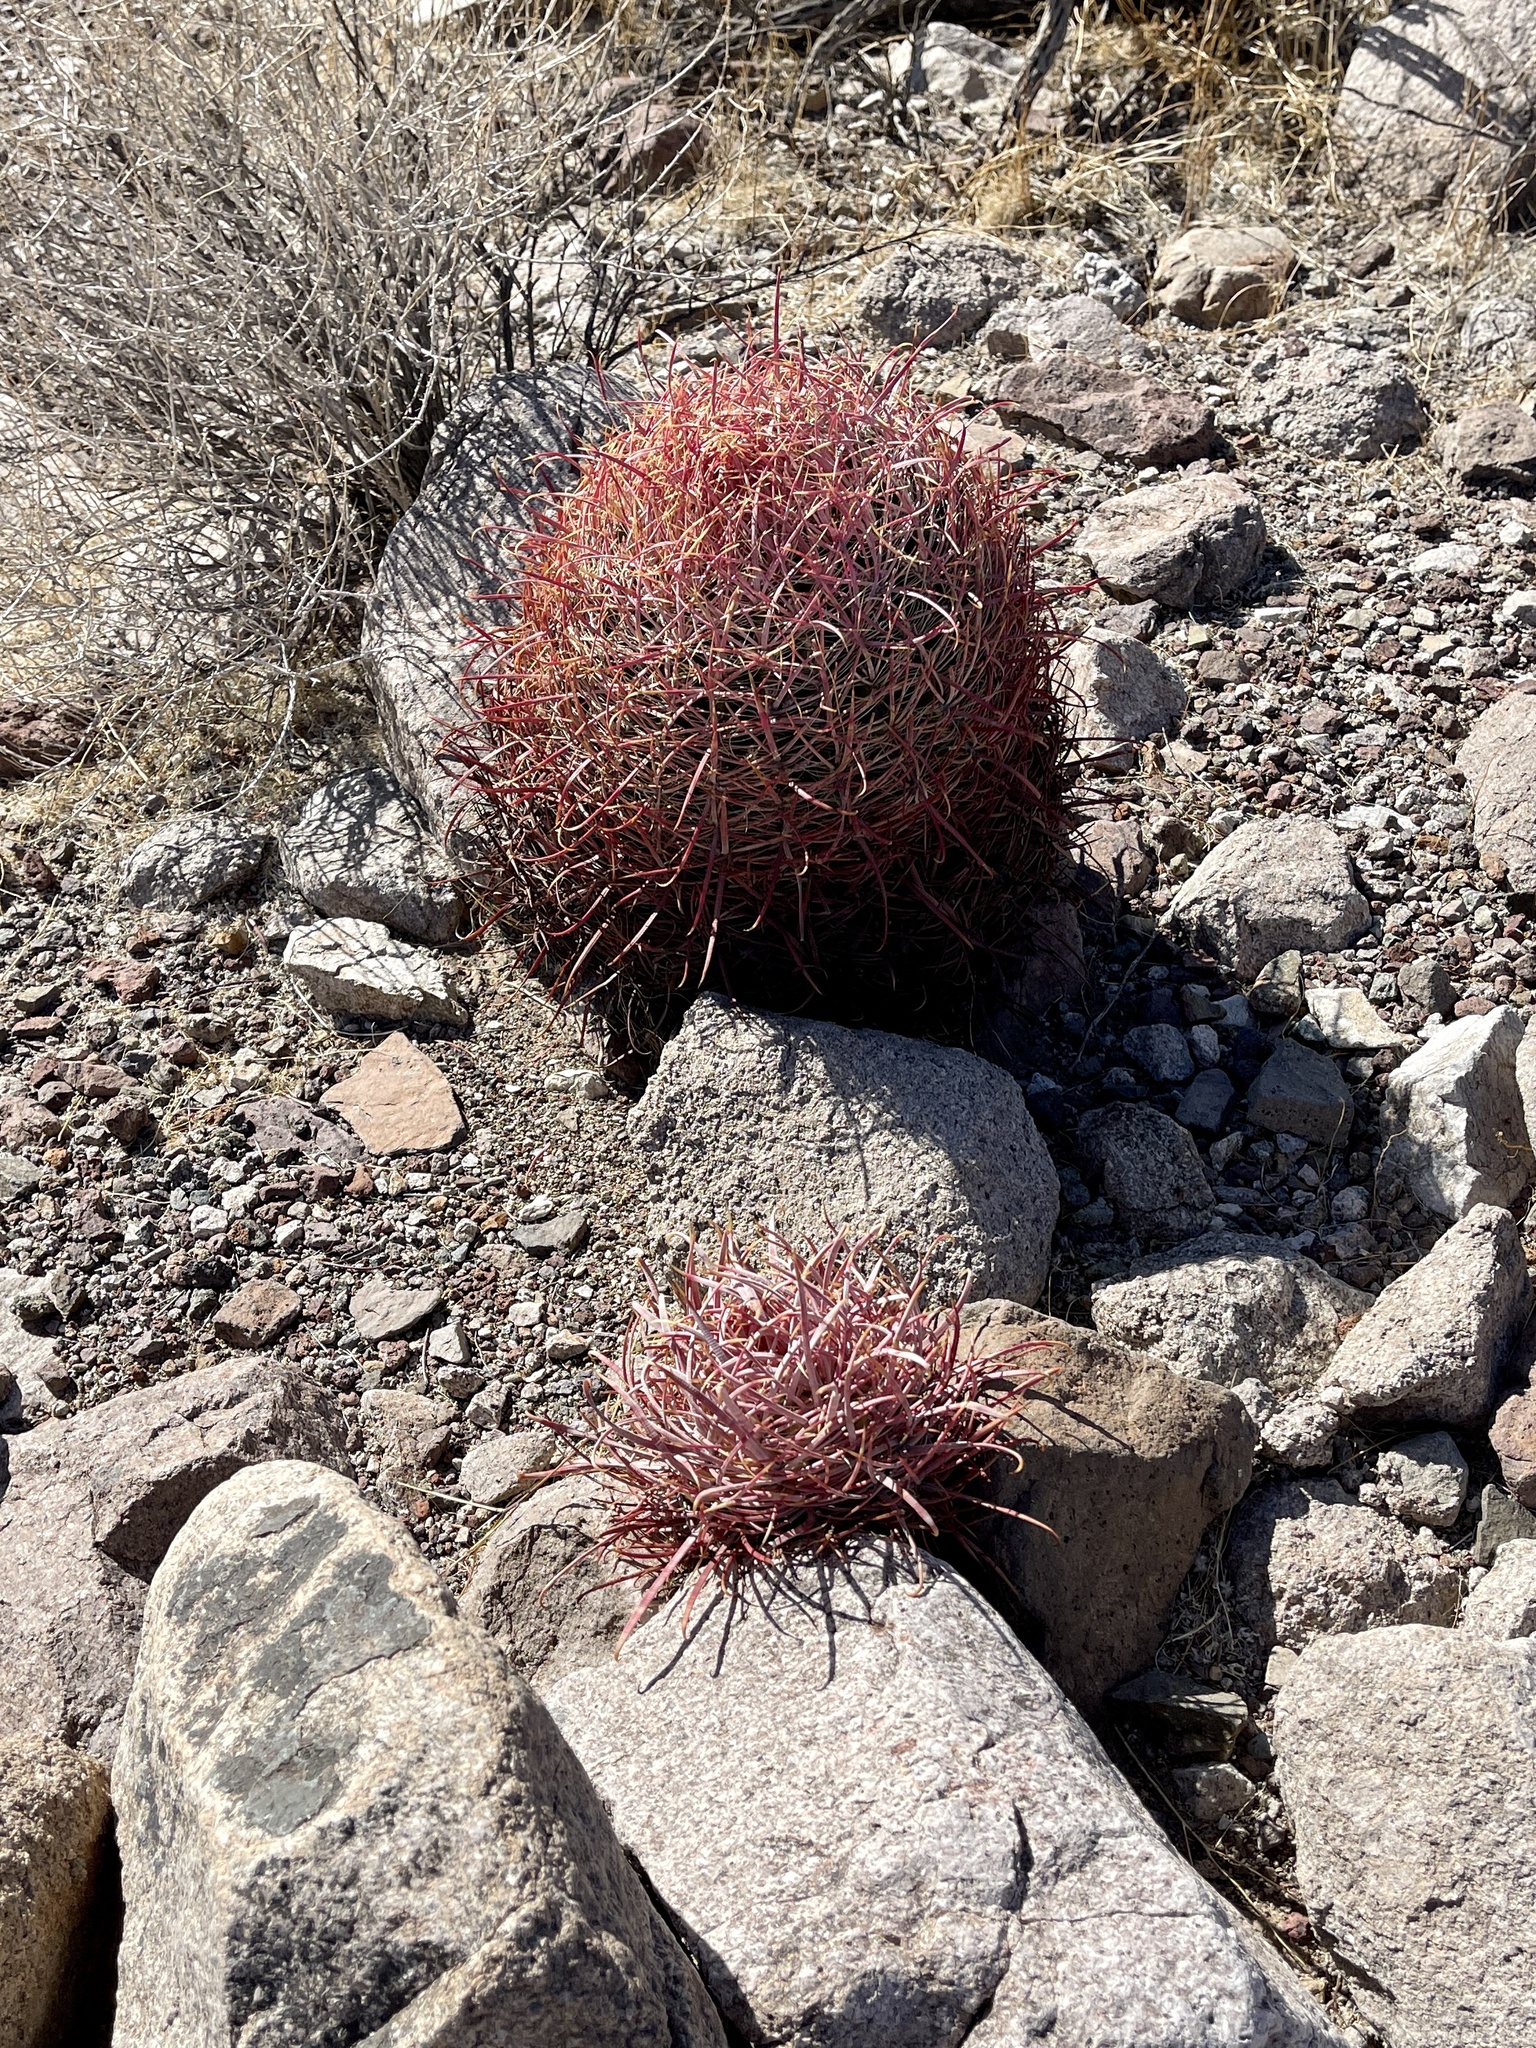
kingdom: Plantae
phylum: Tracheophyta
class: Magnoliopsida
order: Caryophyllales
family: Cactaceae
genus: Ferocactus
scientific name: Ferocactus cylindraceus
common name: California barrel cactus
